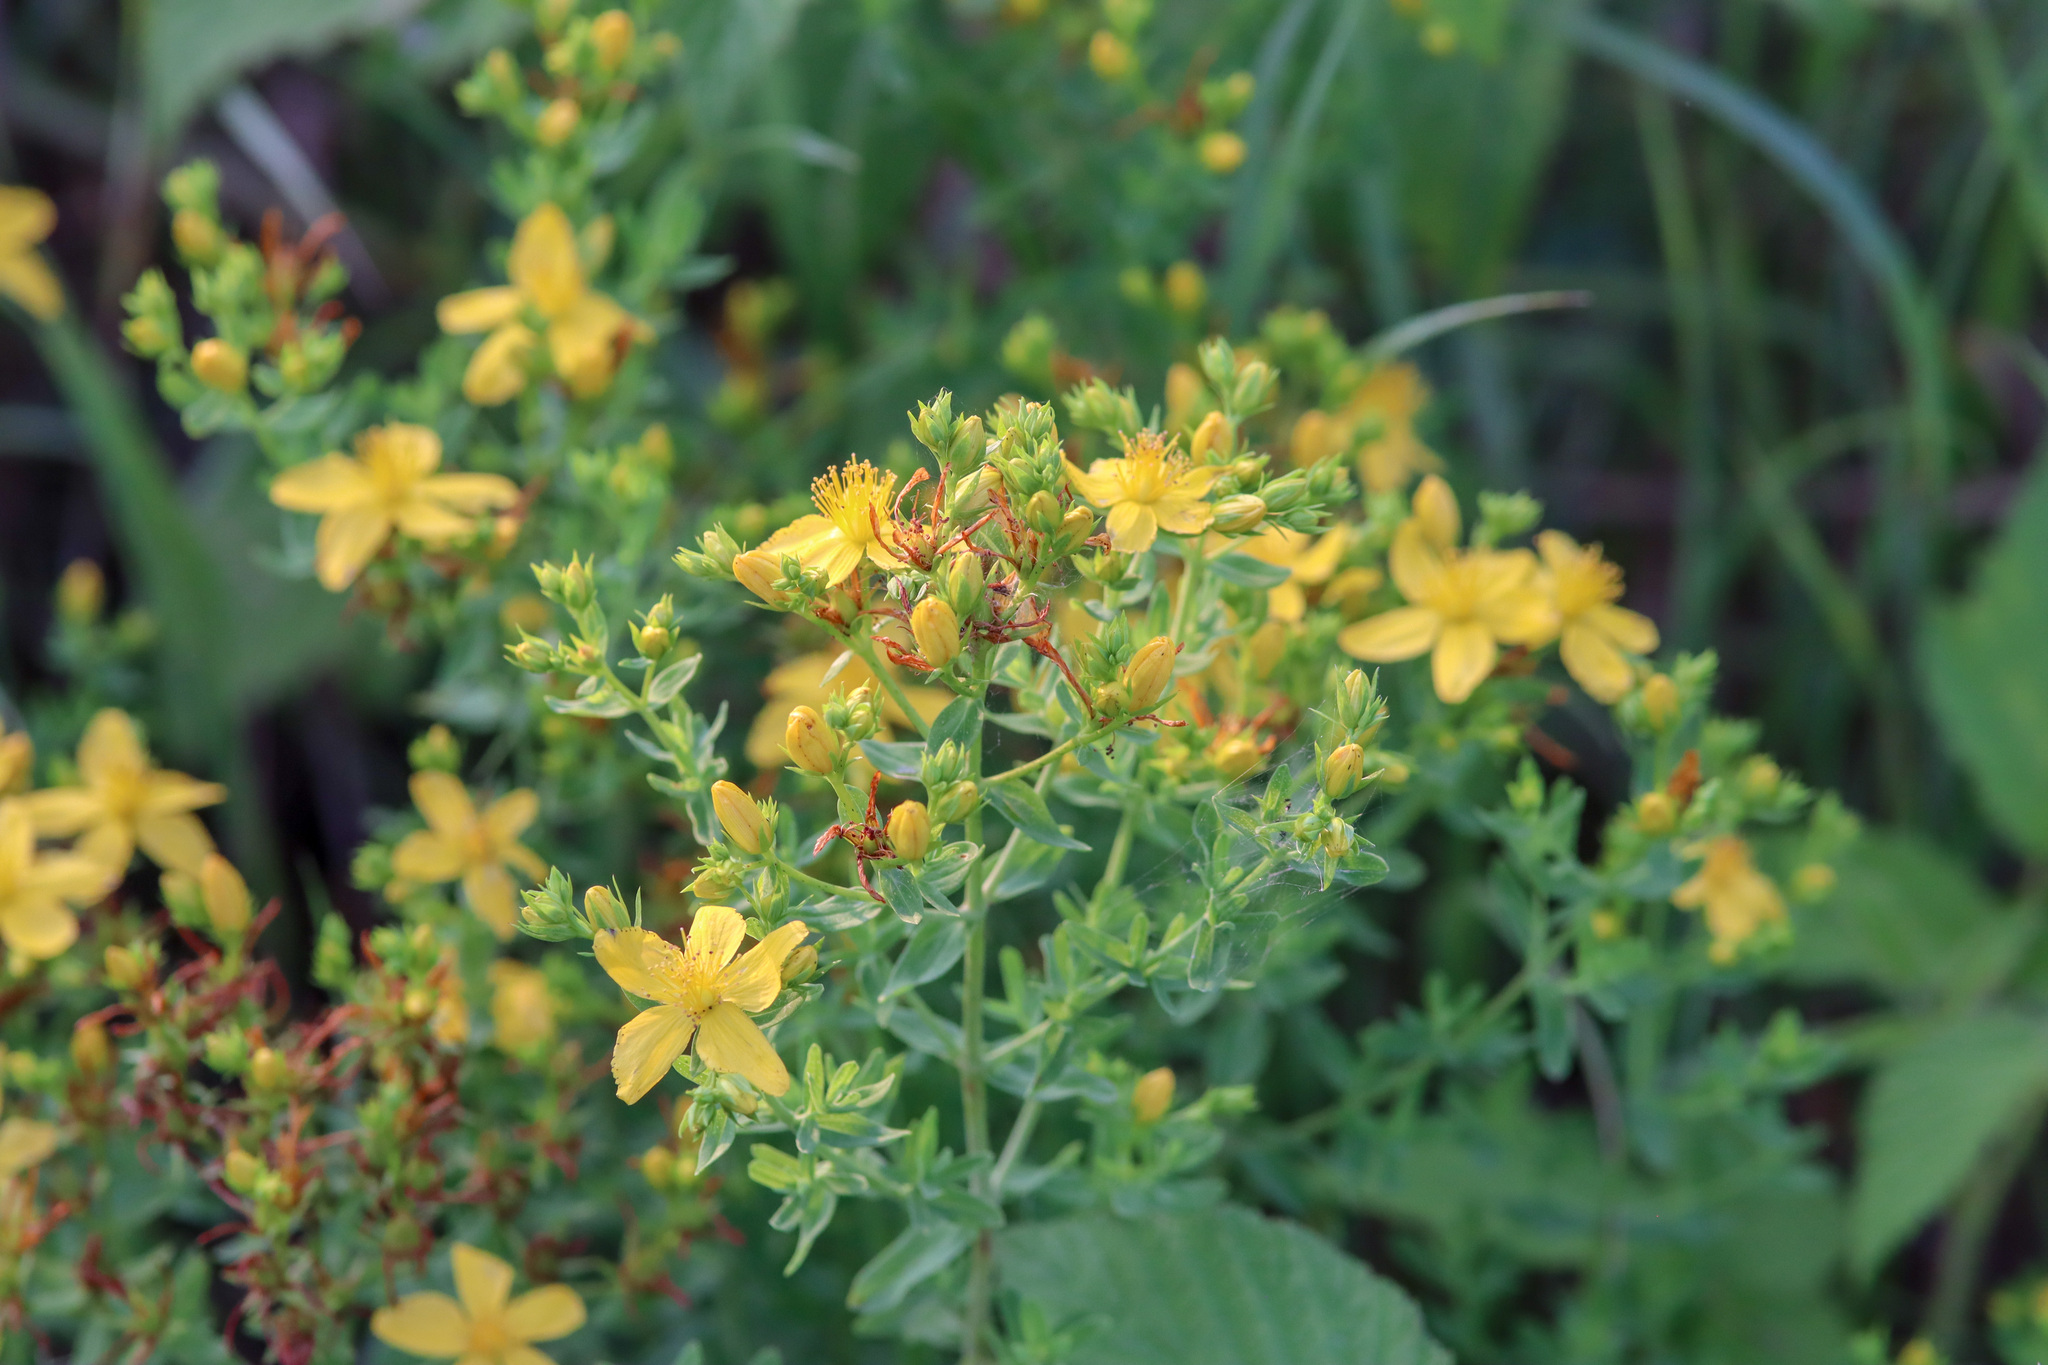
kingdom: Plantae
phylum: Tracheophyta
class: Magnoliopsida
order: Malpighiales
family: Hypericaceae
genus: Hypericum
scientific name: Hypericum perforatum
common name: Common st. johnswort
